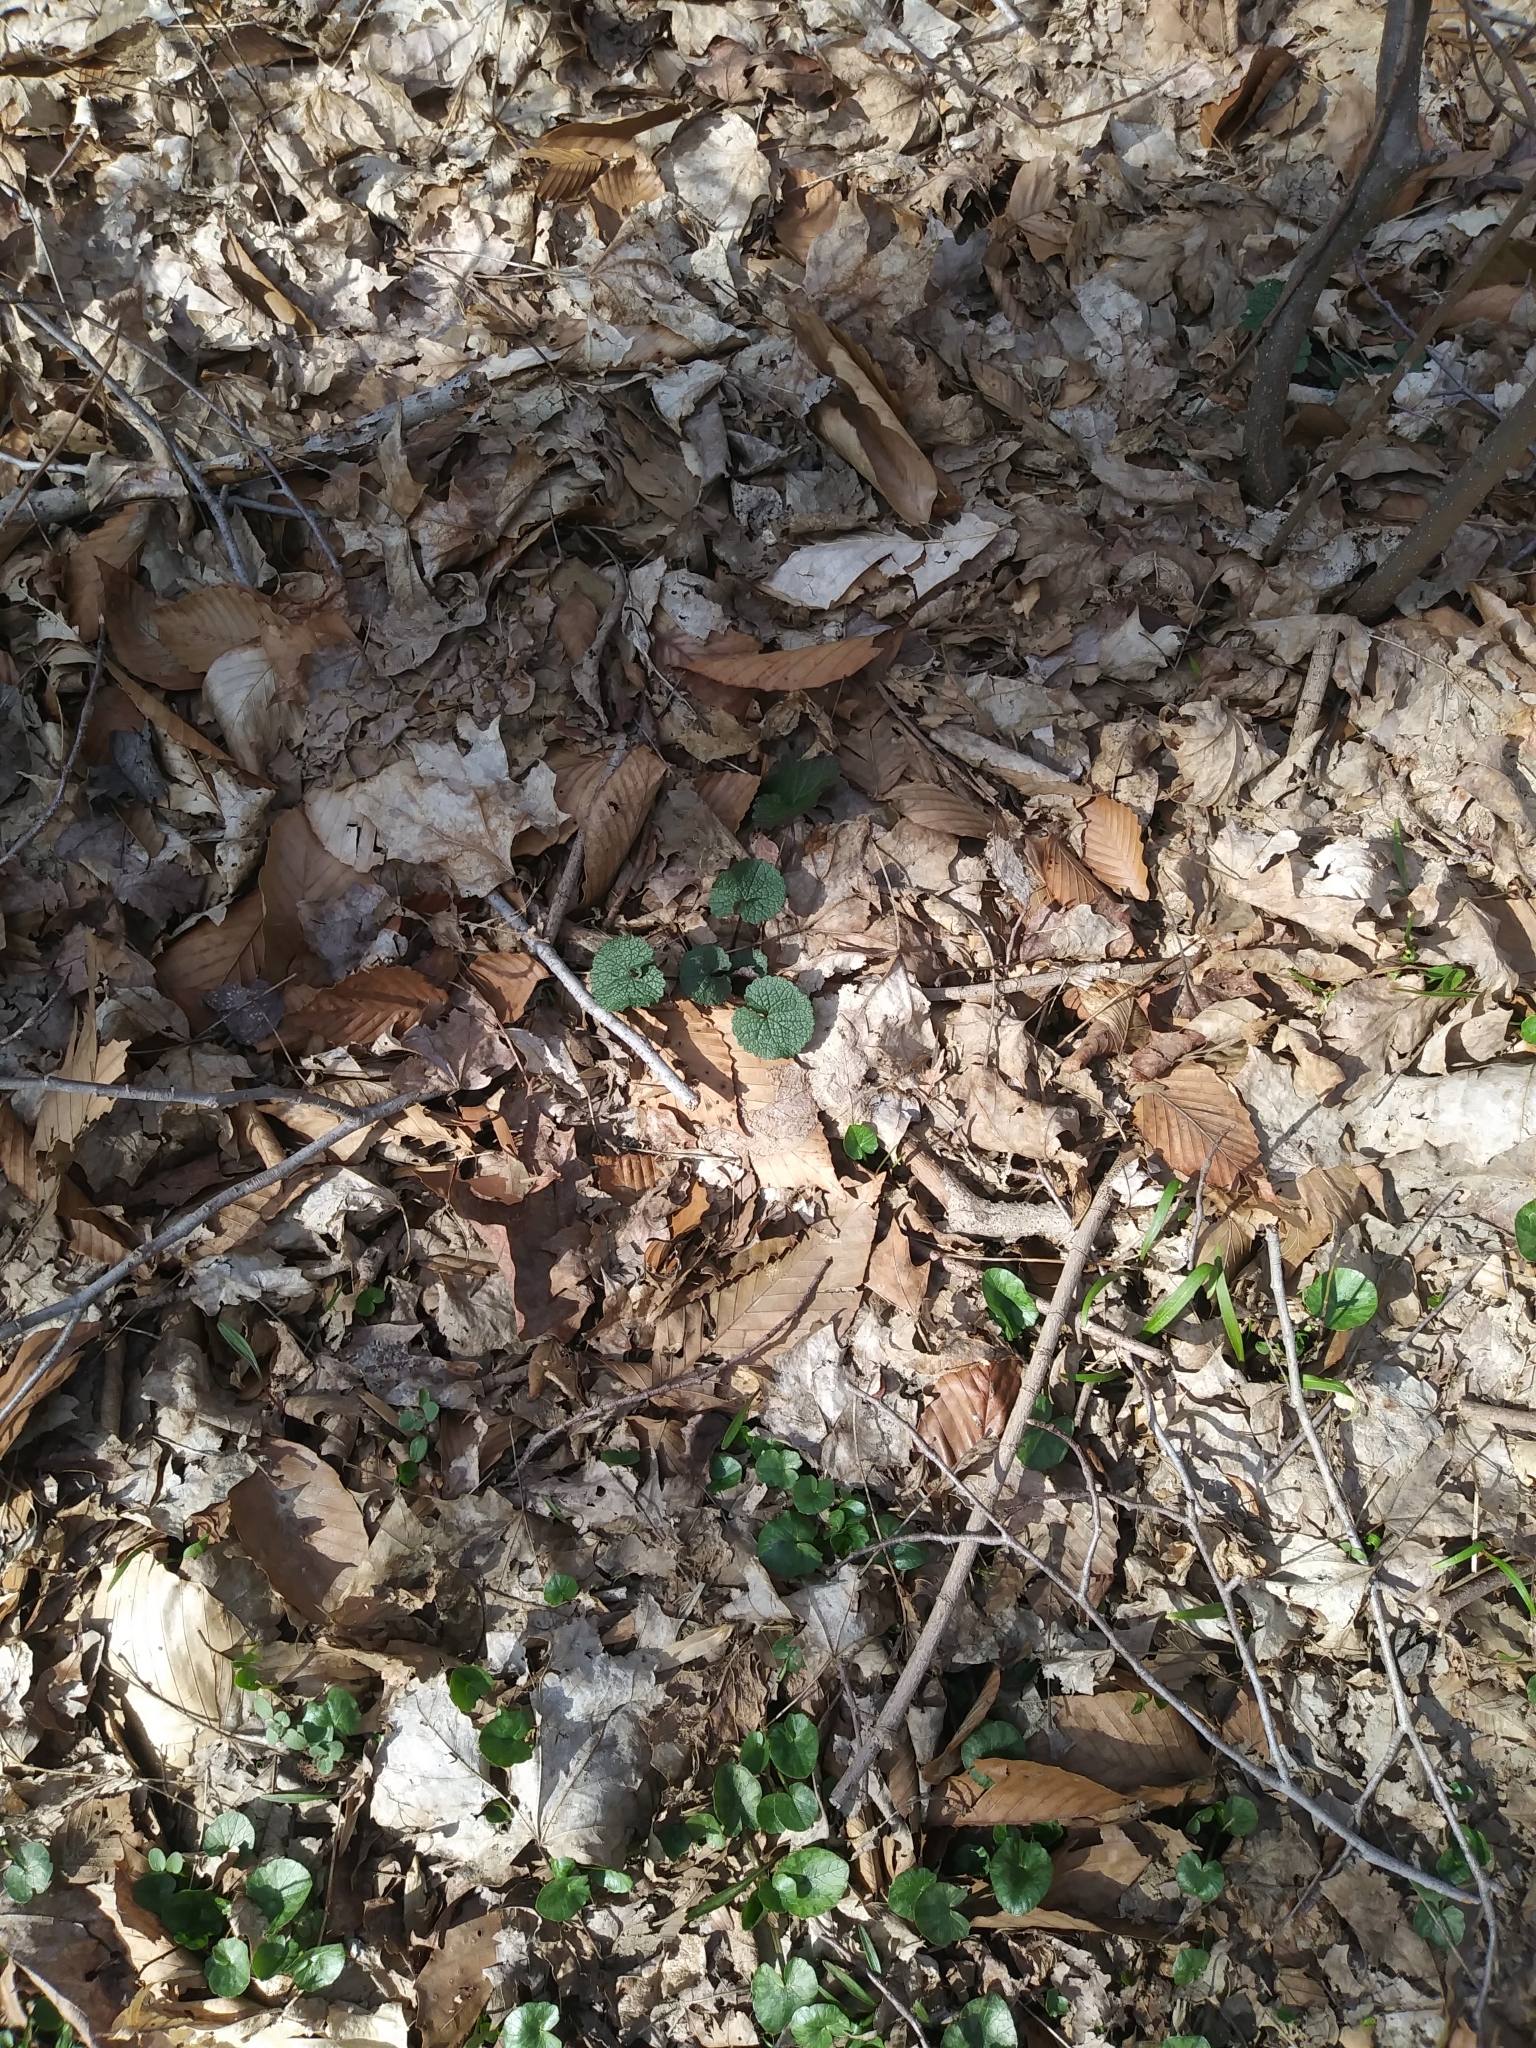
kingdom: Plantae
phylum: Tracheophyta
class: Magnoliopsida
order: Brassicales
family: Brassicaceae
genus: Alliaria
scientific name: Alliaria petiolata
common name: Garlic mustard
